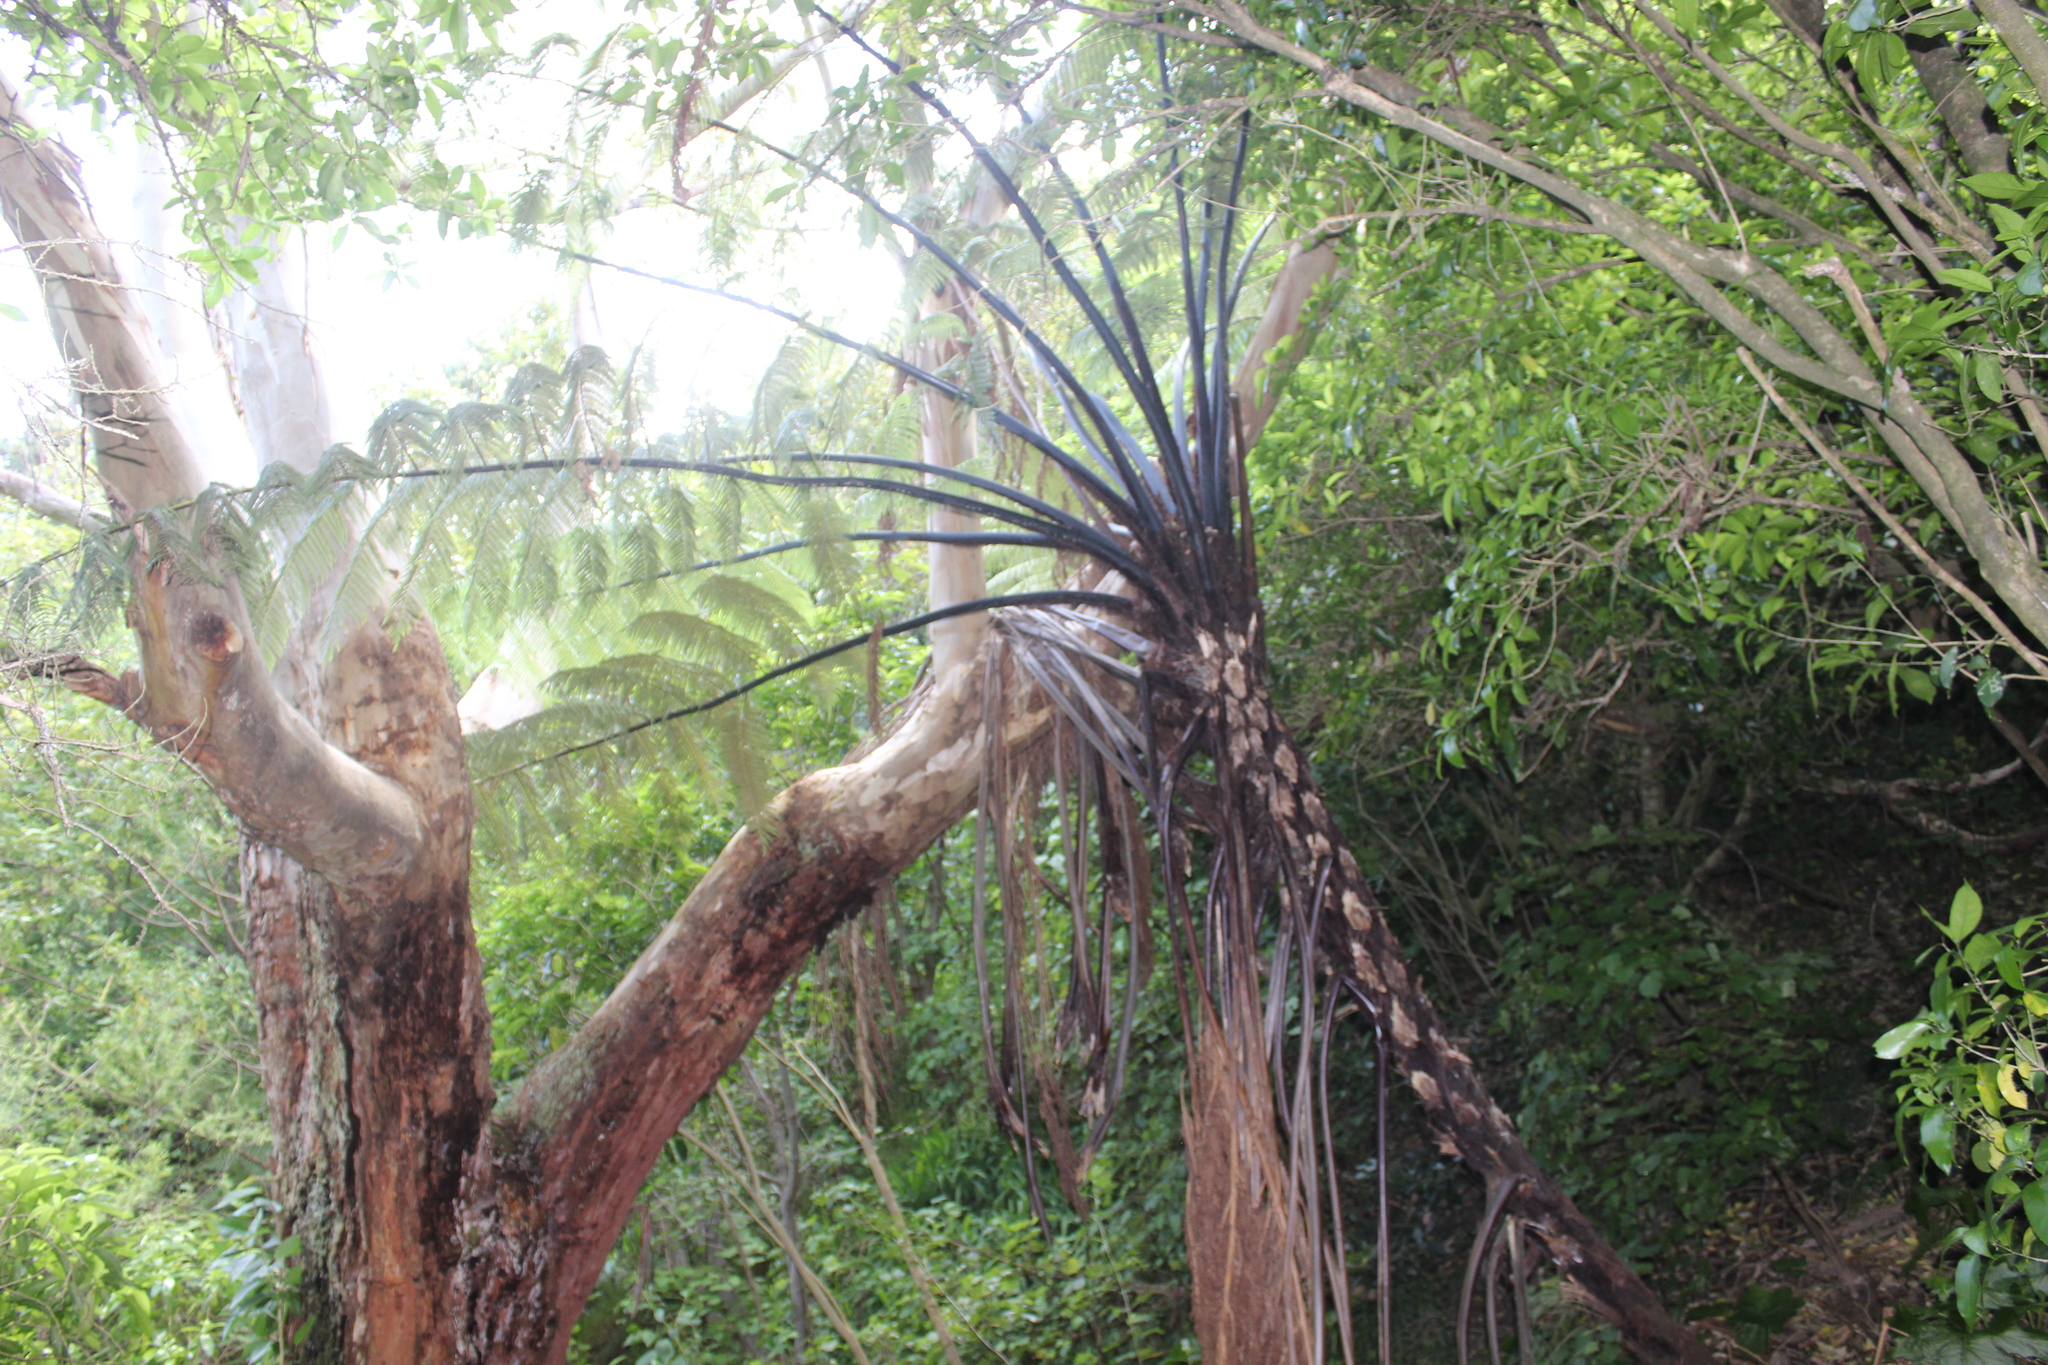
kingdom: Plantae
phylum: Tracheophyta
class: Polypodiopsida
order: Cyatheales
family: Cyatheaceae
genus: Sphaeropteris
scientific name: Sphaeropteris medullaris
